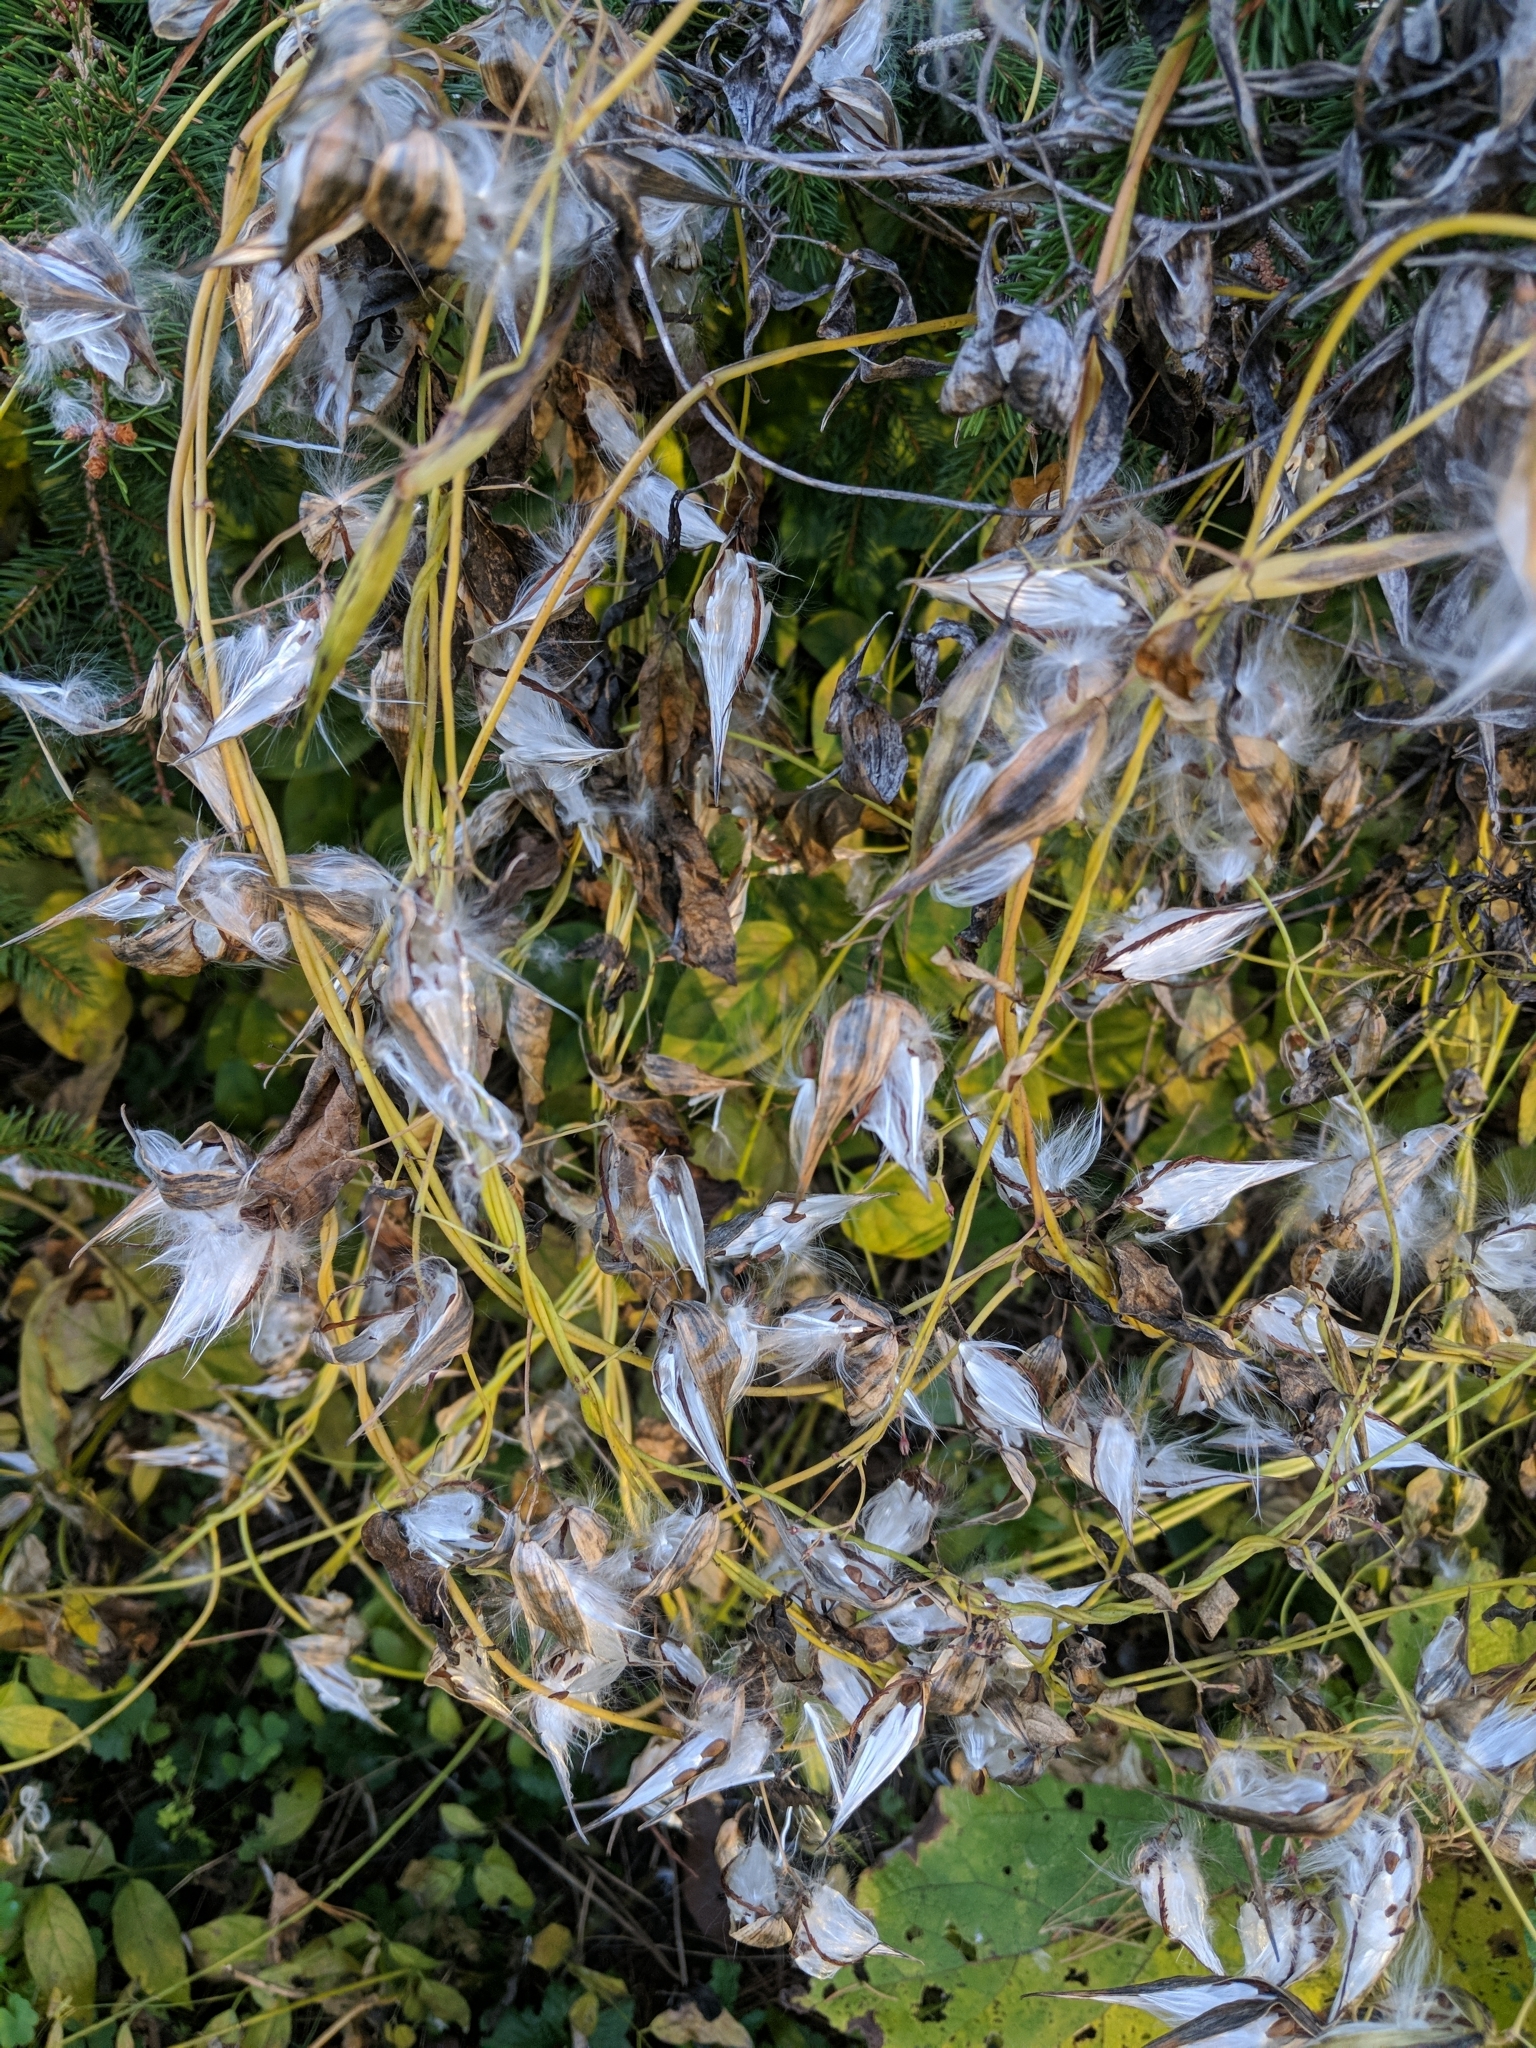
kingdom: Plantae
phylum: Tracheophyta
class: Magnoliopsida
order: Gentianales
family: Apocynaceae
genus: Vincetoxicum
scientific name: Vincetoxicum rossicum
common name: Dog-strangling vine
